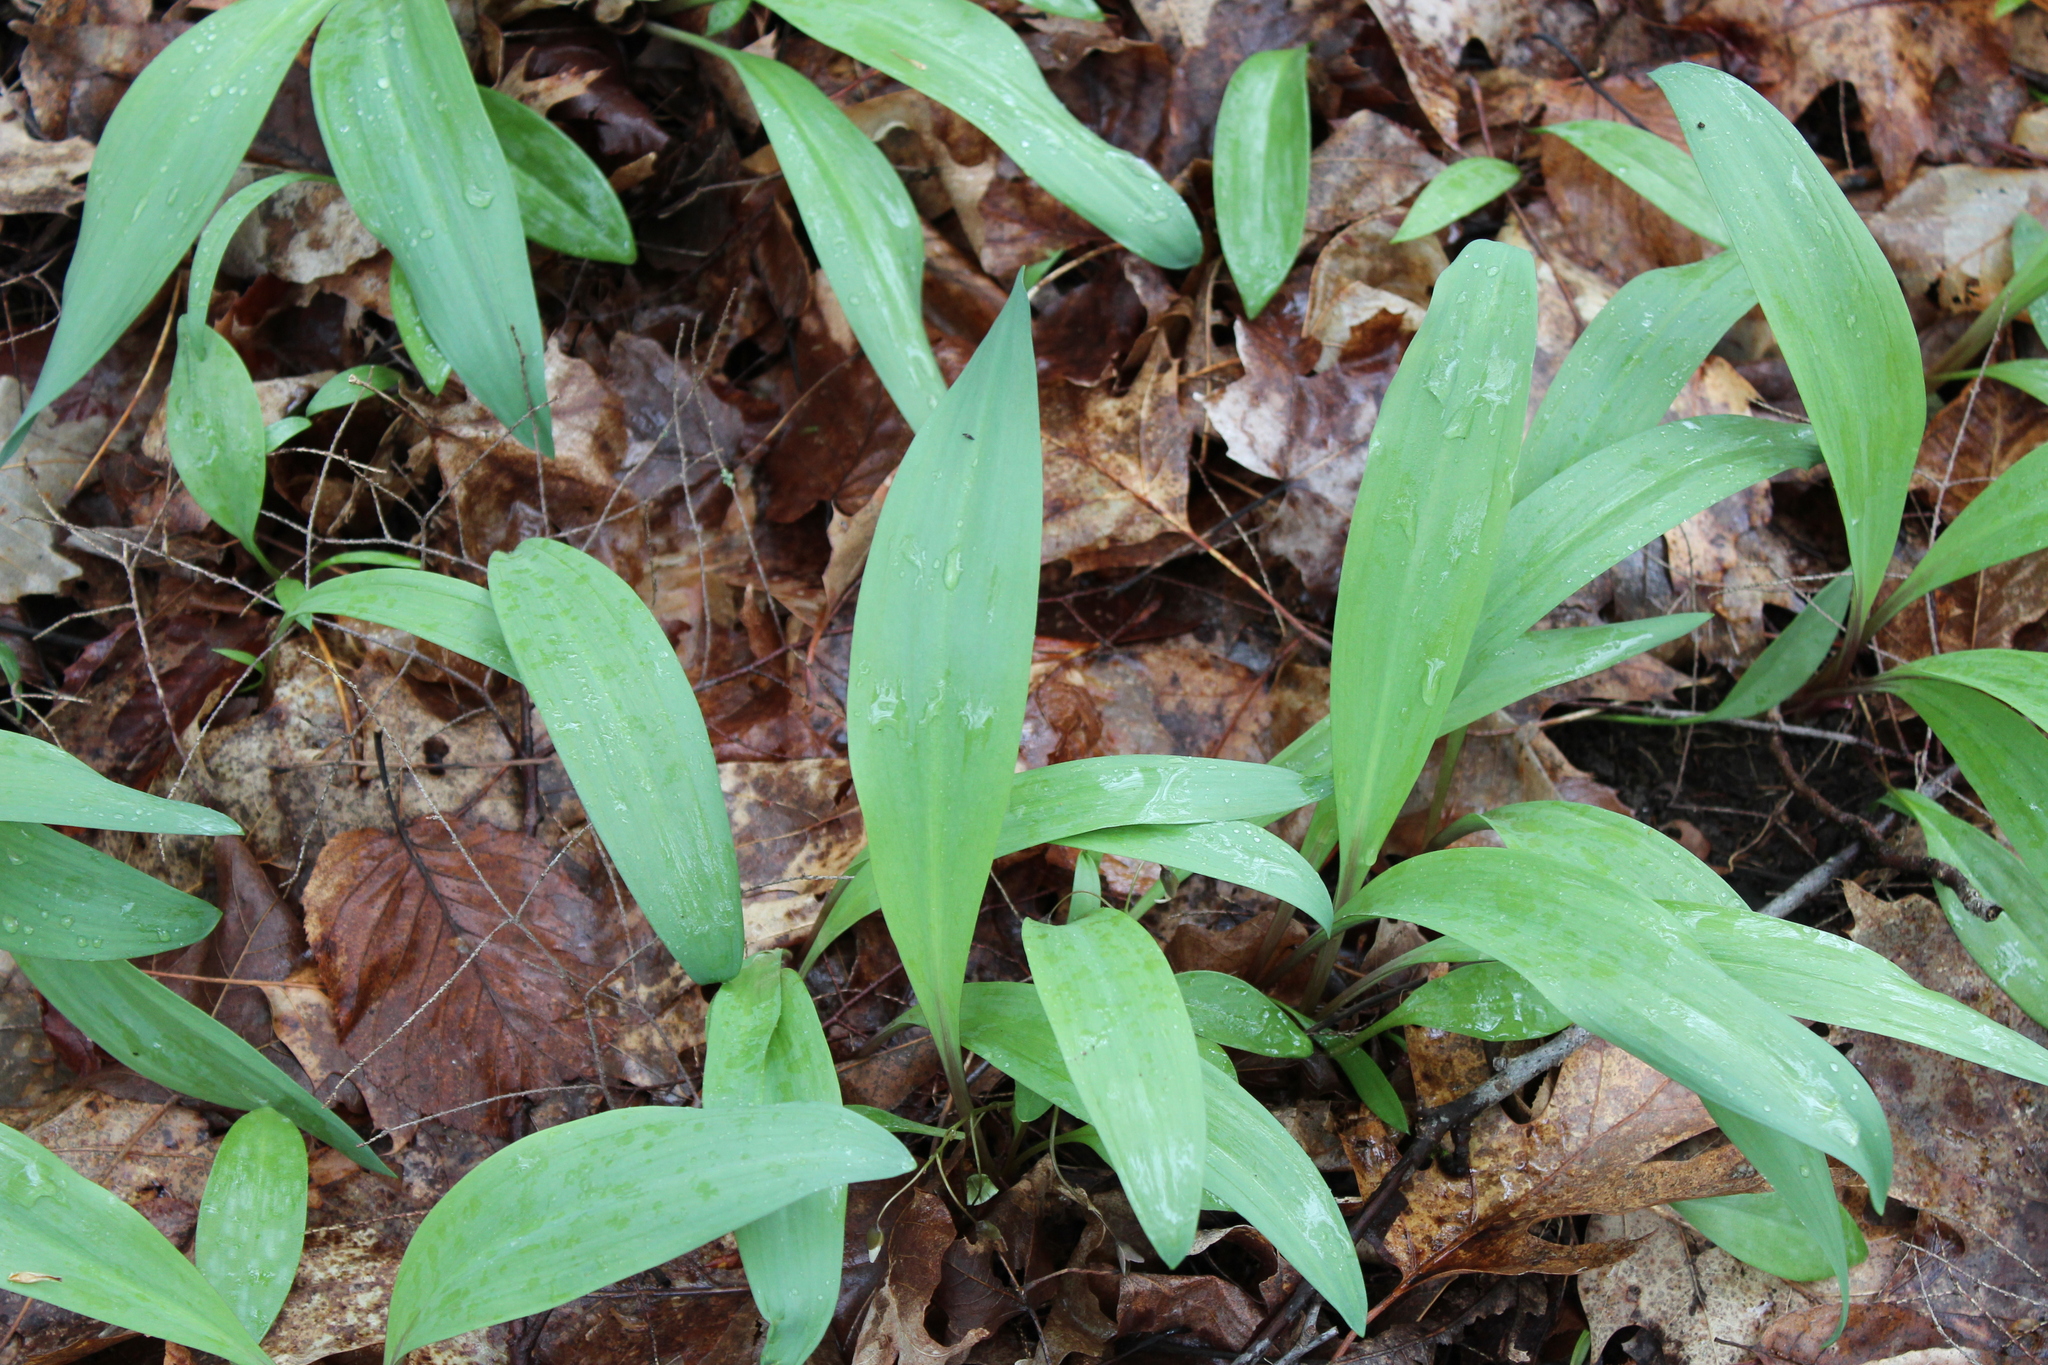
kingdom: Plantae
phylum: Tracheophyta
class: Liliopsida
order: Asparagales
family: Amaryllidaceae
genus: Allium
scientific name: Allium tricoccum
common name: Ramp
